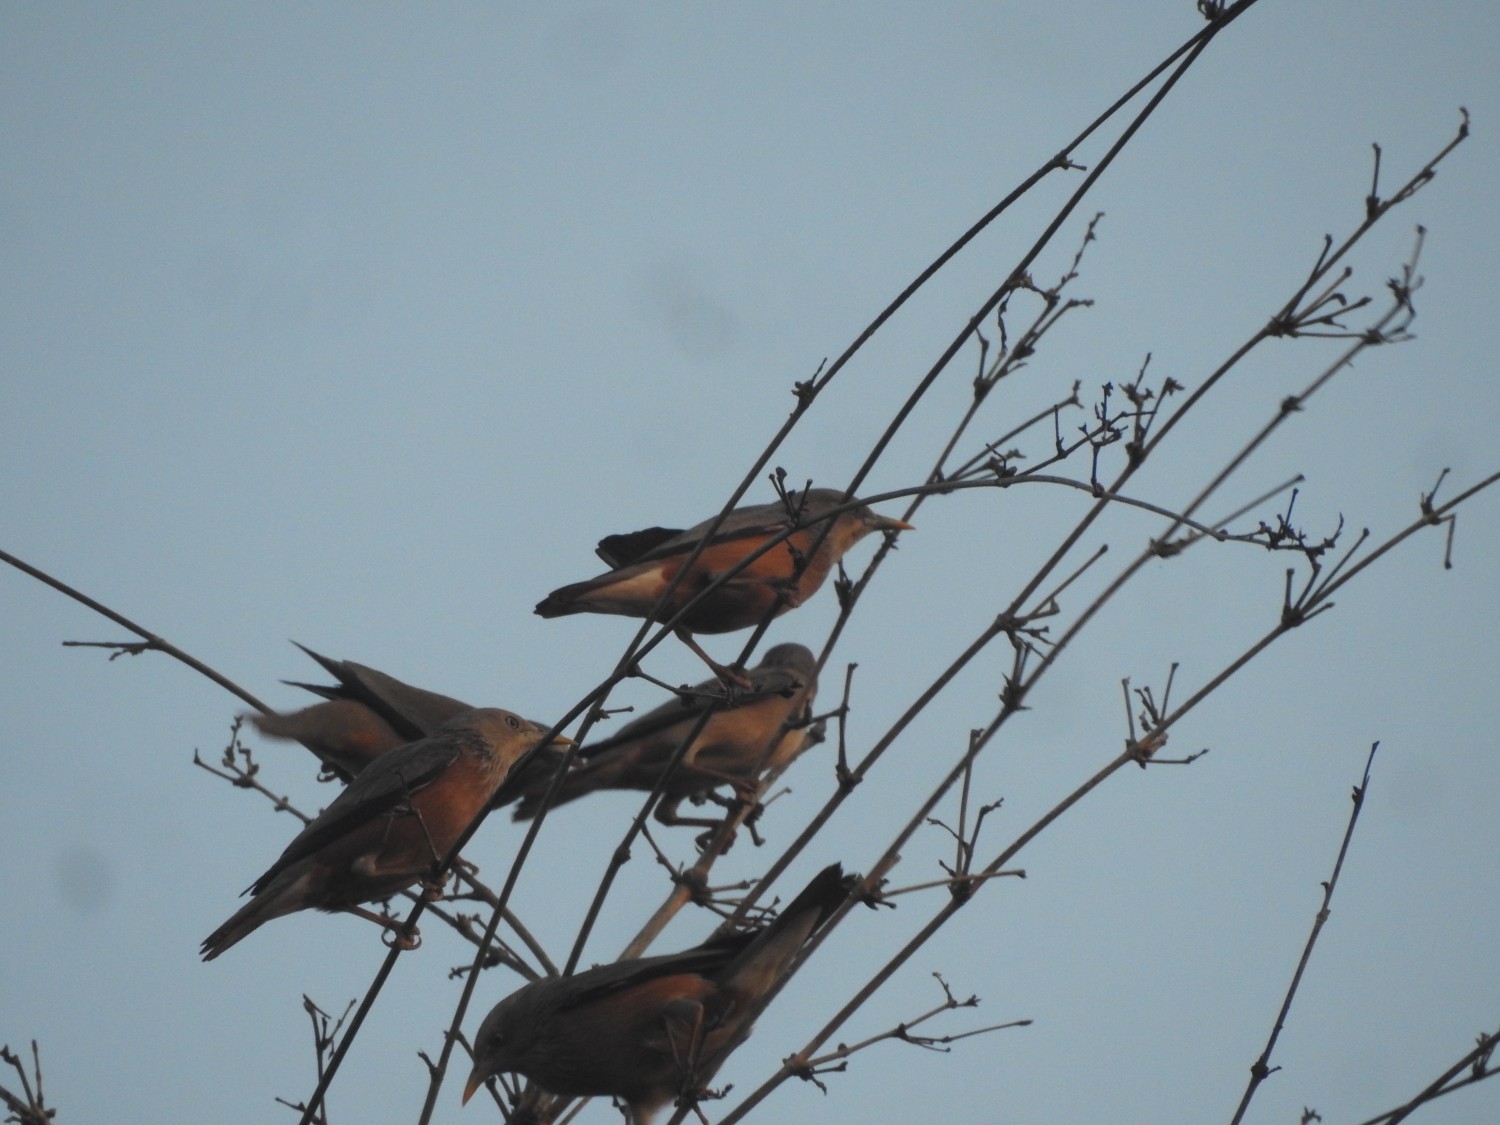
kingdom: Animalia
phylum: Chordata
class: Aves
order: Passeriformes
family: Sturnidae
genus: Sturnia
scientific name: Sturnia malabarica
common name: Chestnut-tailed starling
